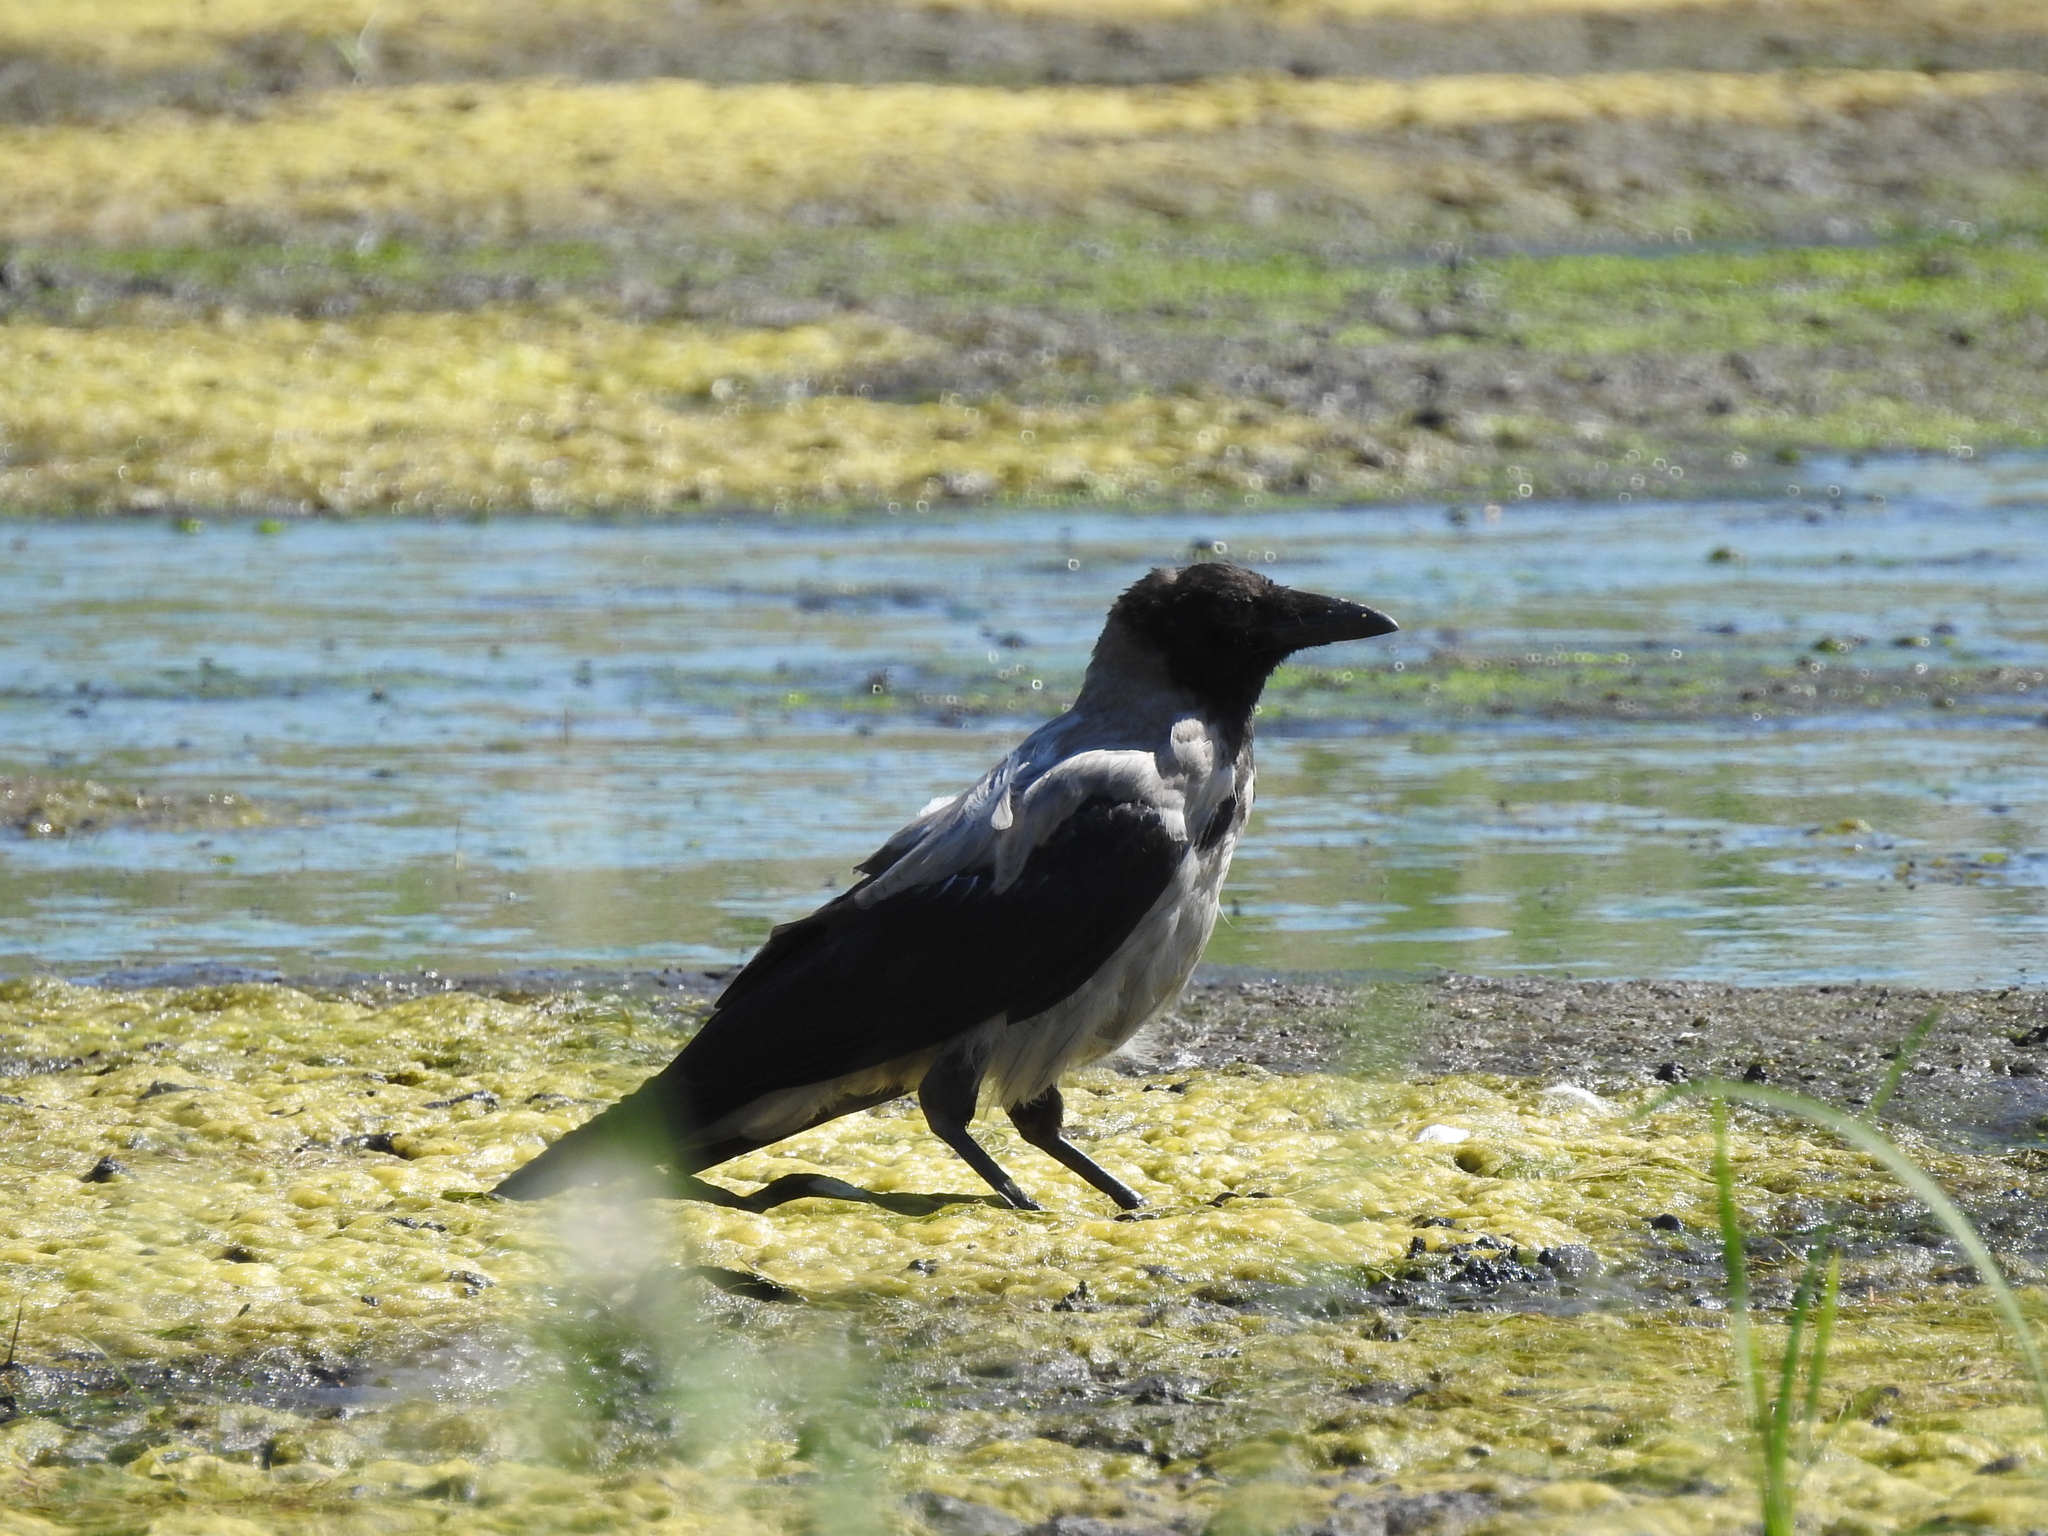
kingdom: Animalia
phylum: Chordata
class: Aves
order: Passeriformes
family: Corvidae
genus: Corvus
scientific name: Corvus cornix
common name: Hooded crow
